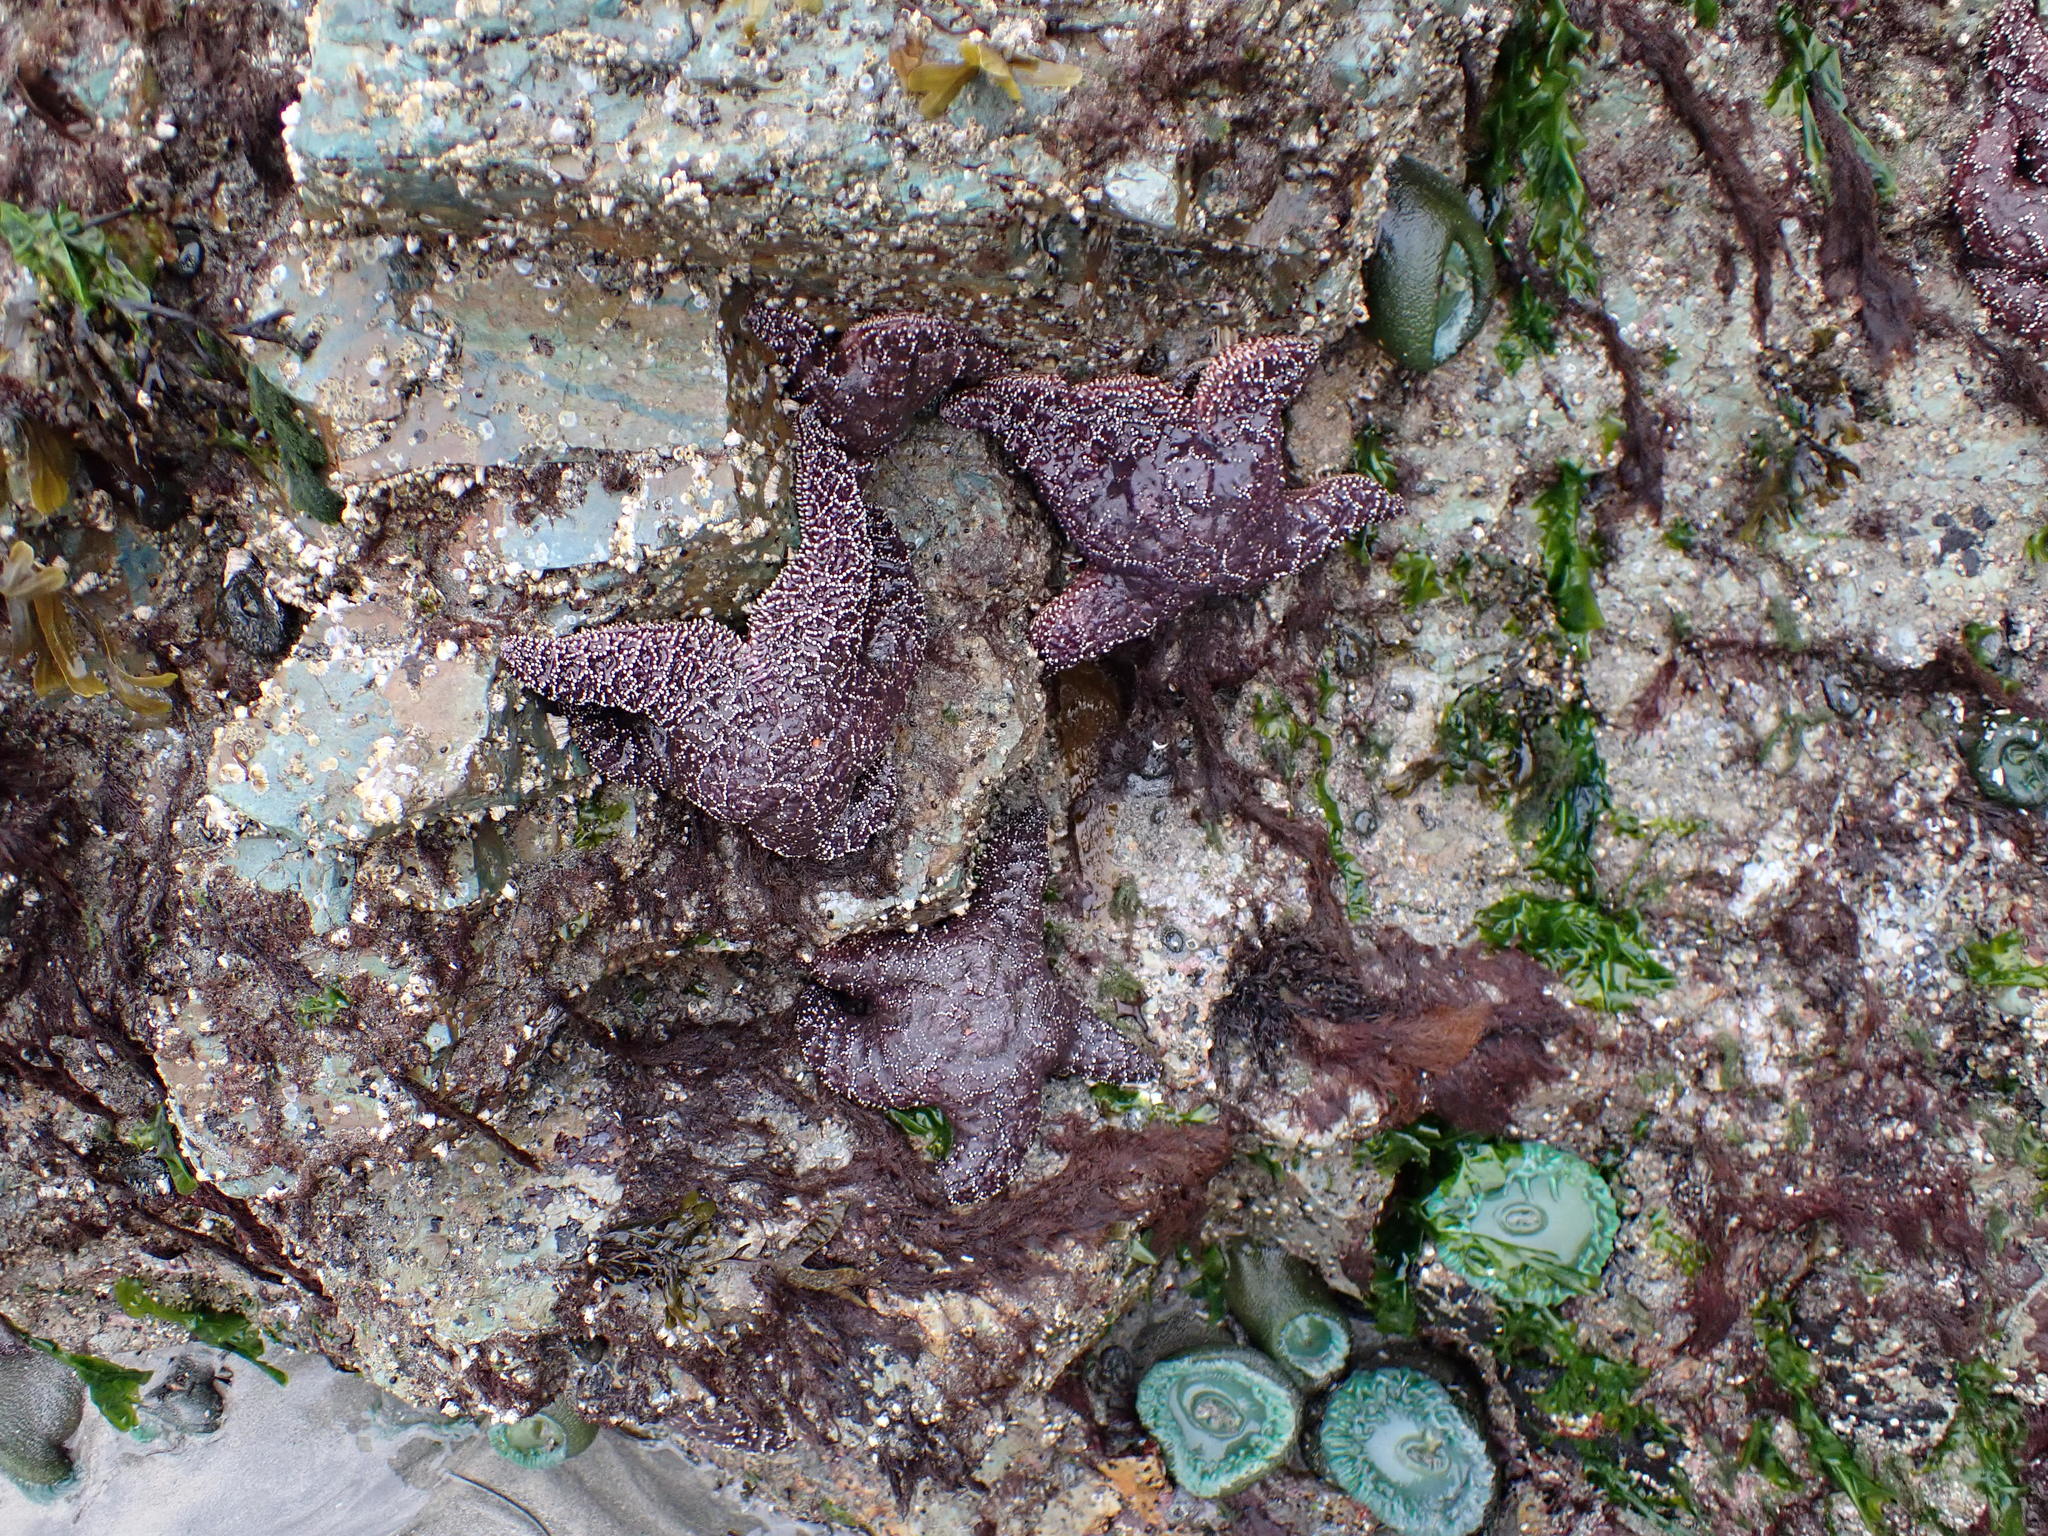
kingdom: Animalia
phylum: Echinodermata
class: Asteroidea
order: Forcipulatida
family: Asteriidae
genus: Pisaster
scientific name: Pisaster ochraceus
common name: Ochre stars
